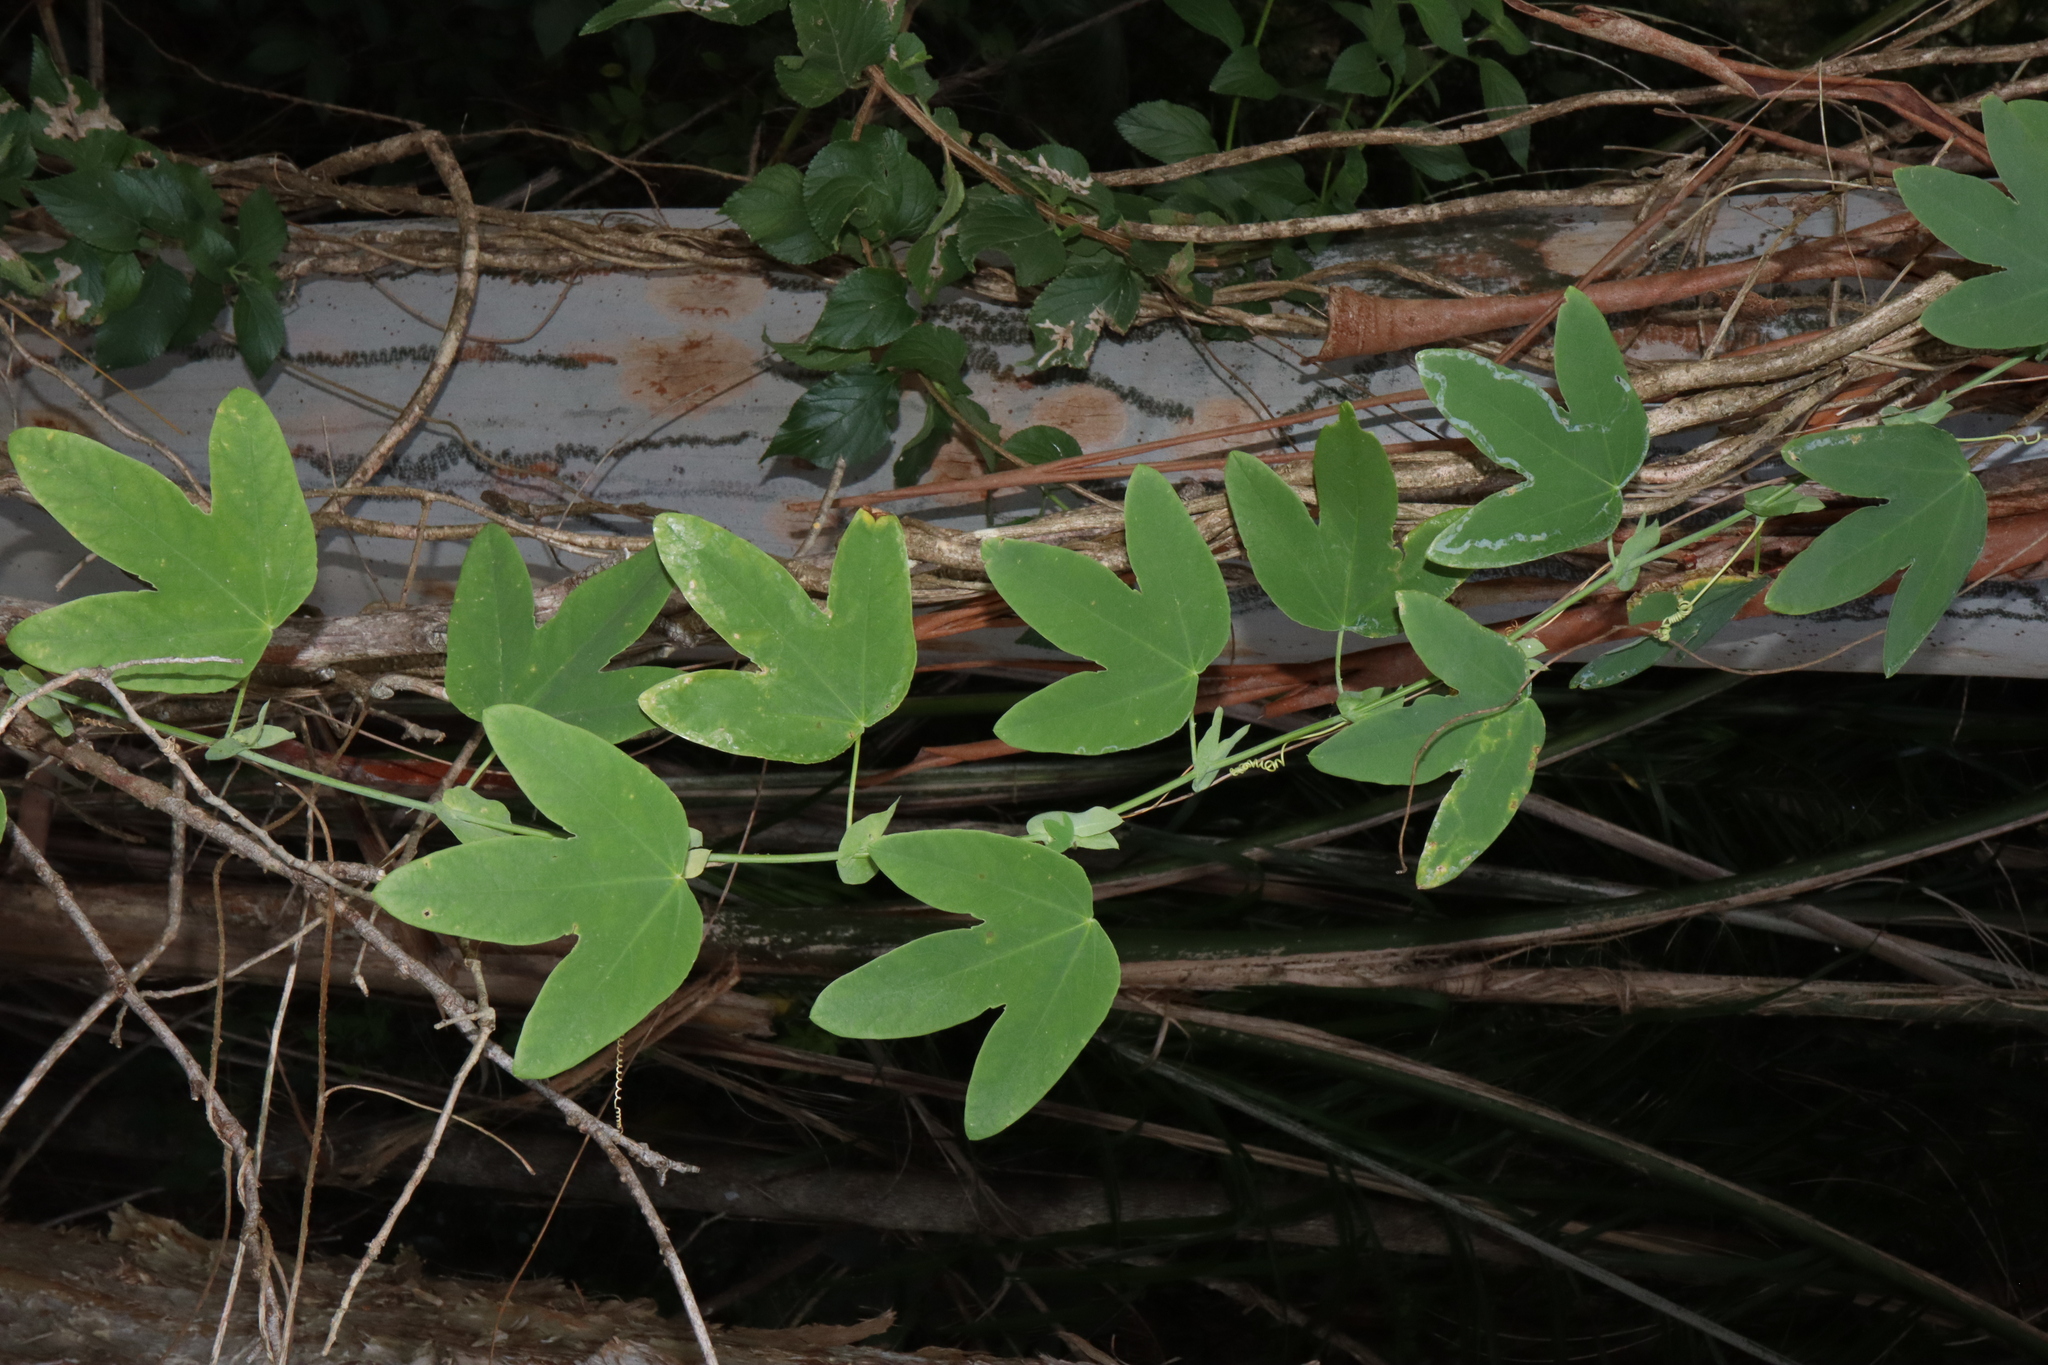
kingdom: Plantae
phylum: Tracheophyta
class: Magnoliopsida
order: Malpighiales
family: Passifloraceae
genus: Passiflora
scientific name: Passiflora subpeltata
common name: White passionflower
